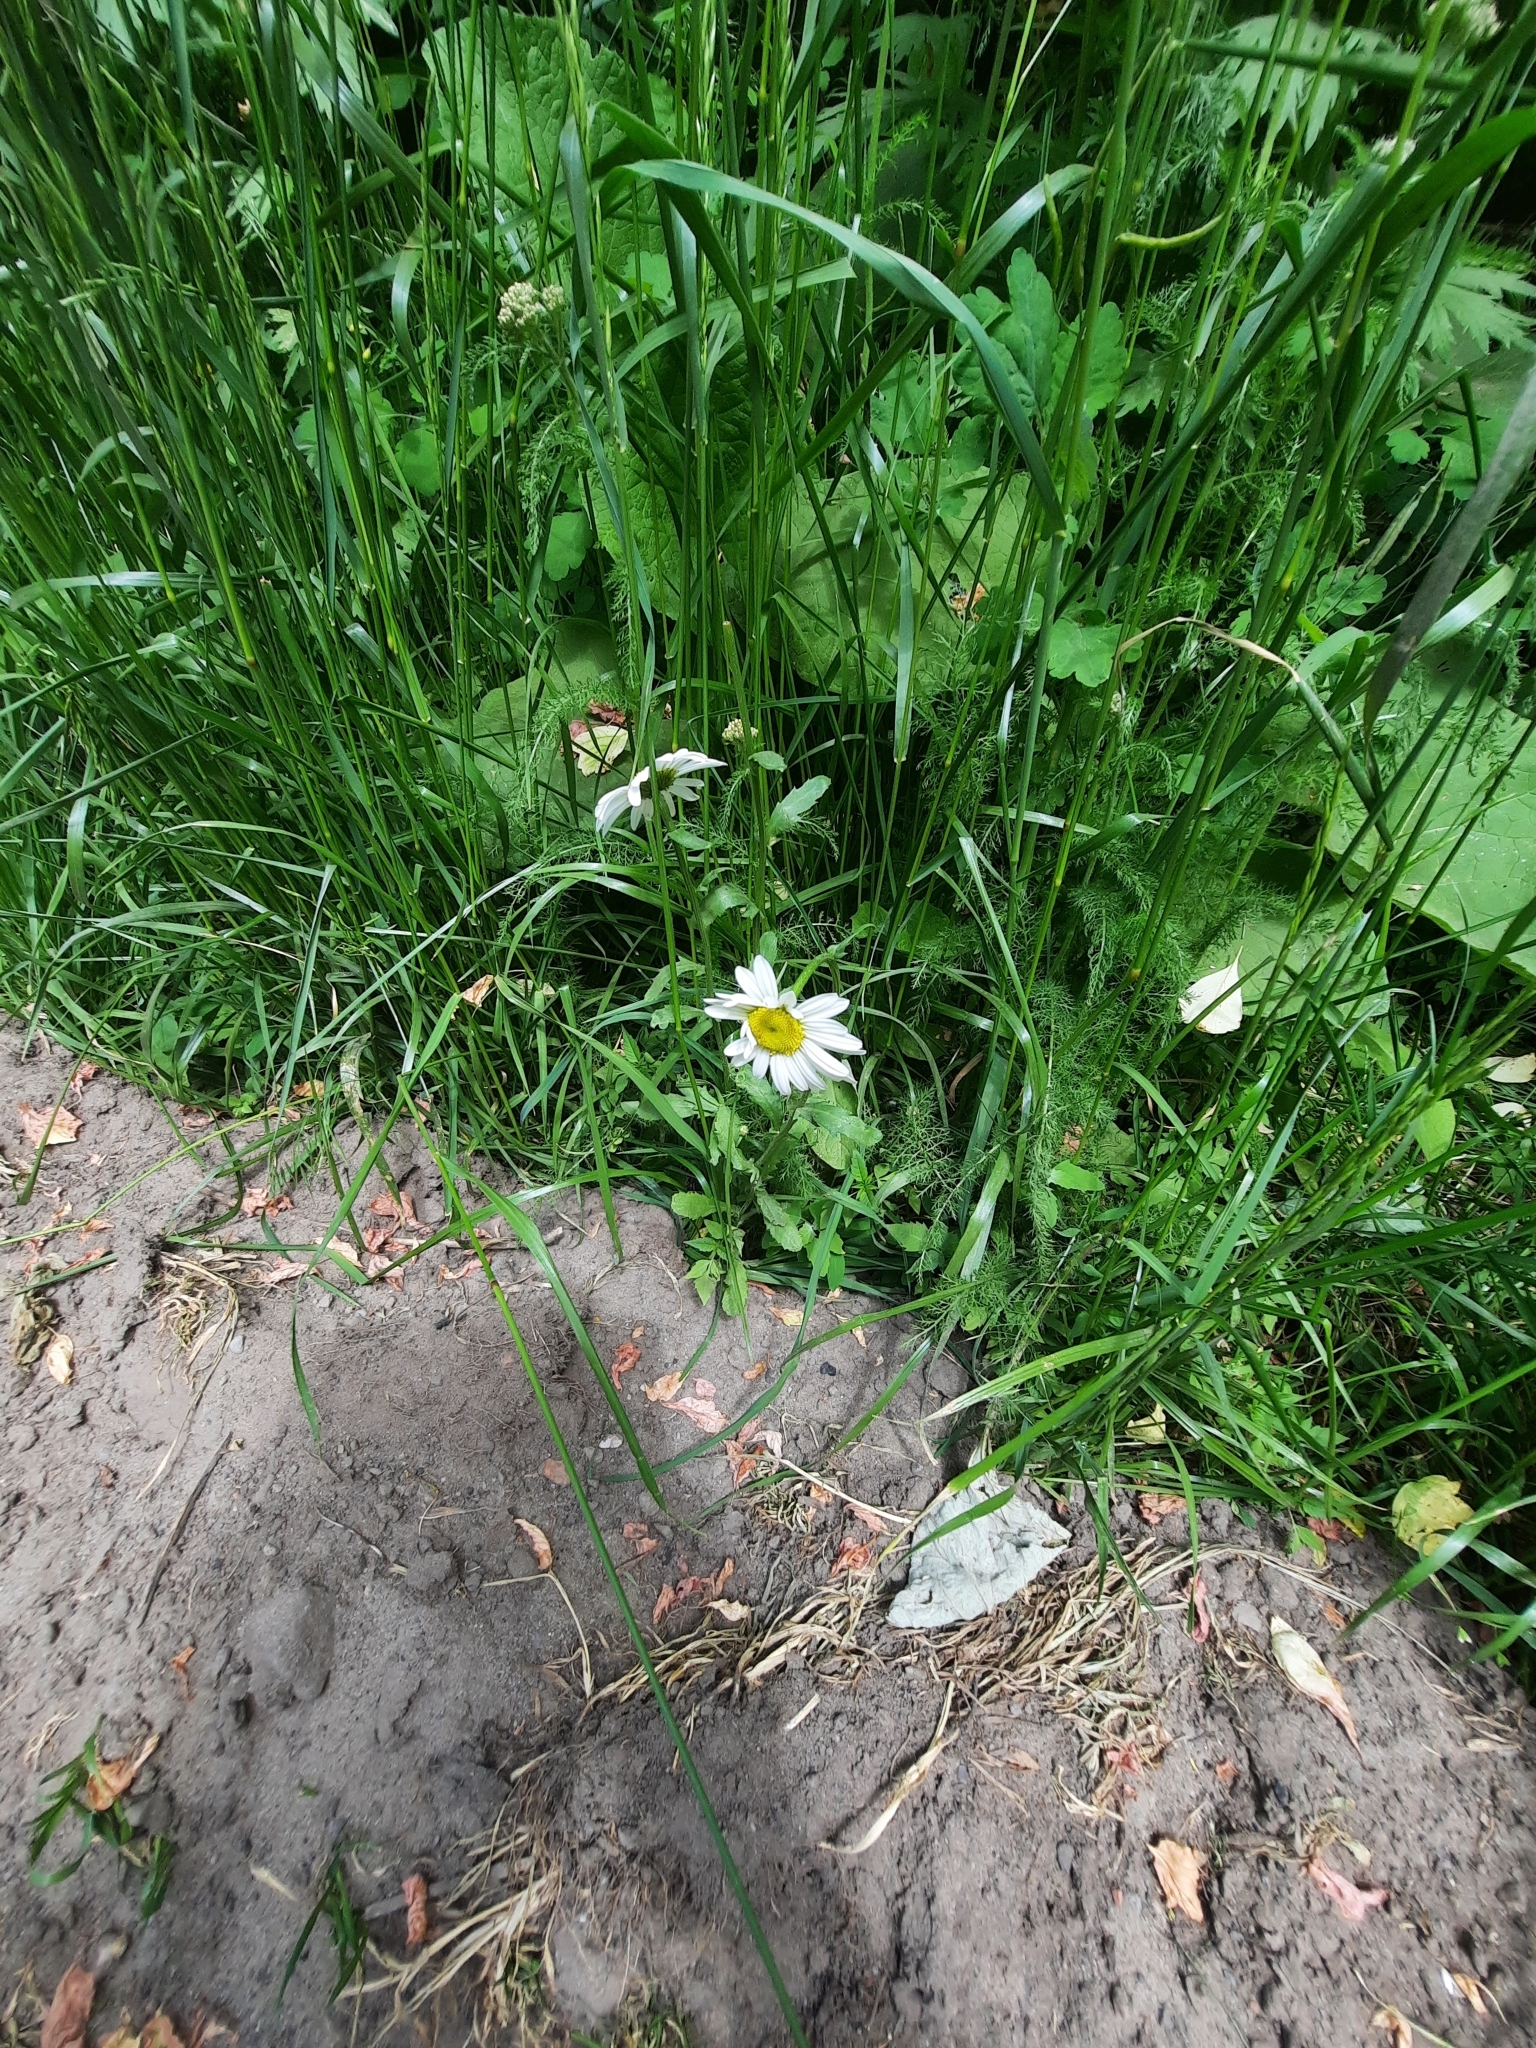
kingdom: Plantae
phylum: Tracheophyta
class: Magnoliopsida
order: Asterales
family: Asteraceae
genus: Leucanthemum
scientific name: Leucanthemum vulgare
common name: Oxeye daisy
